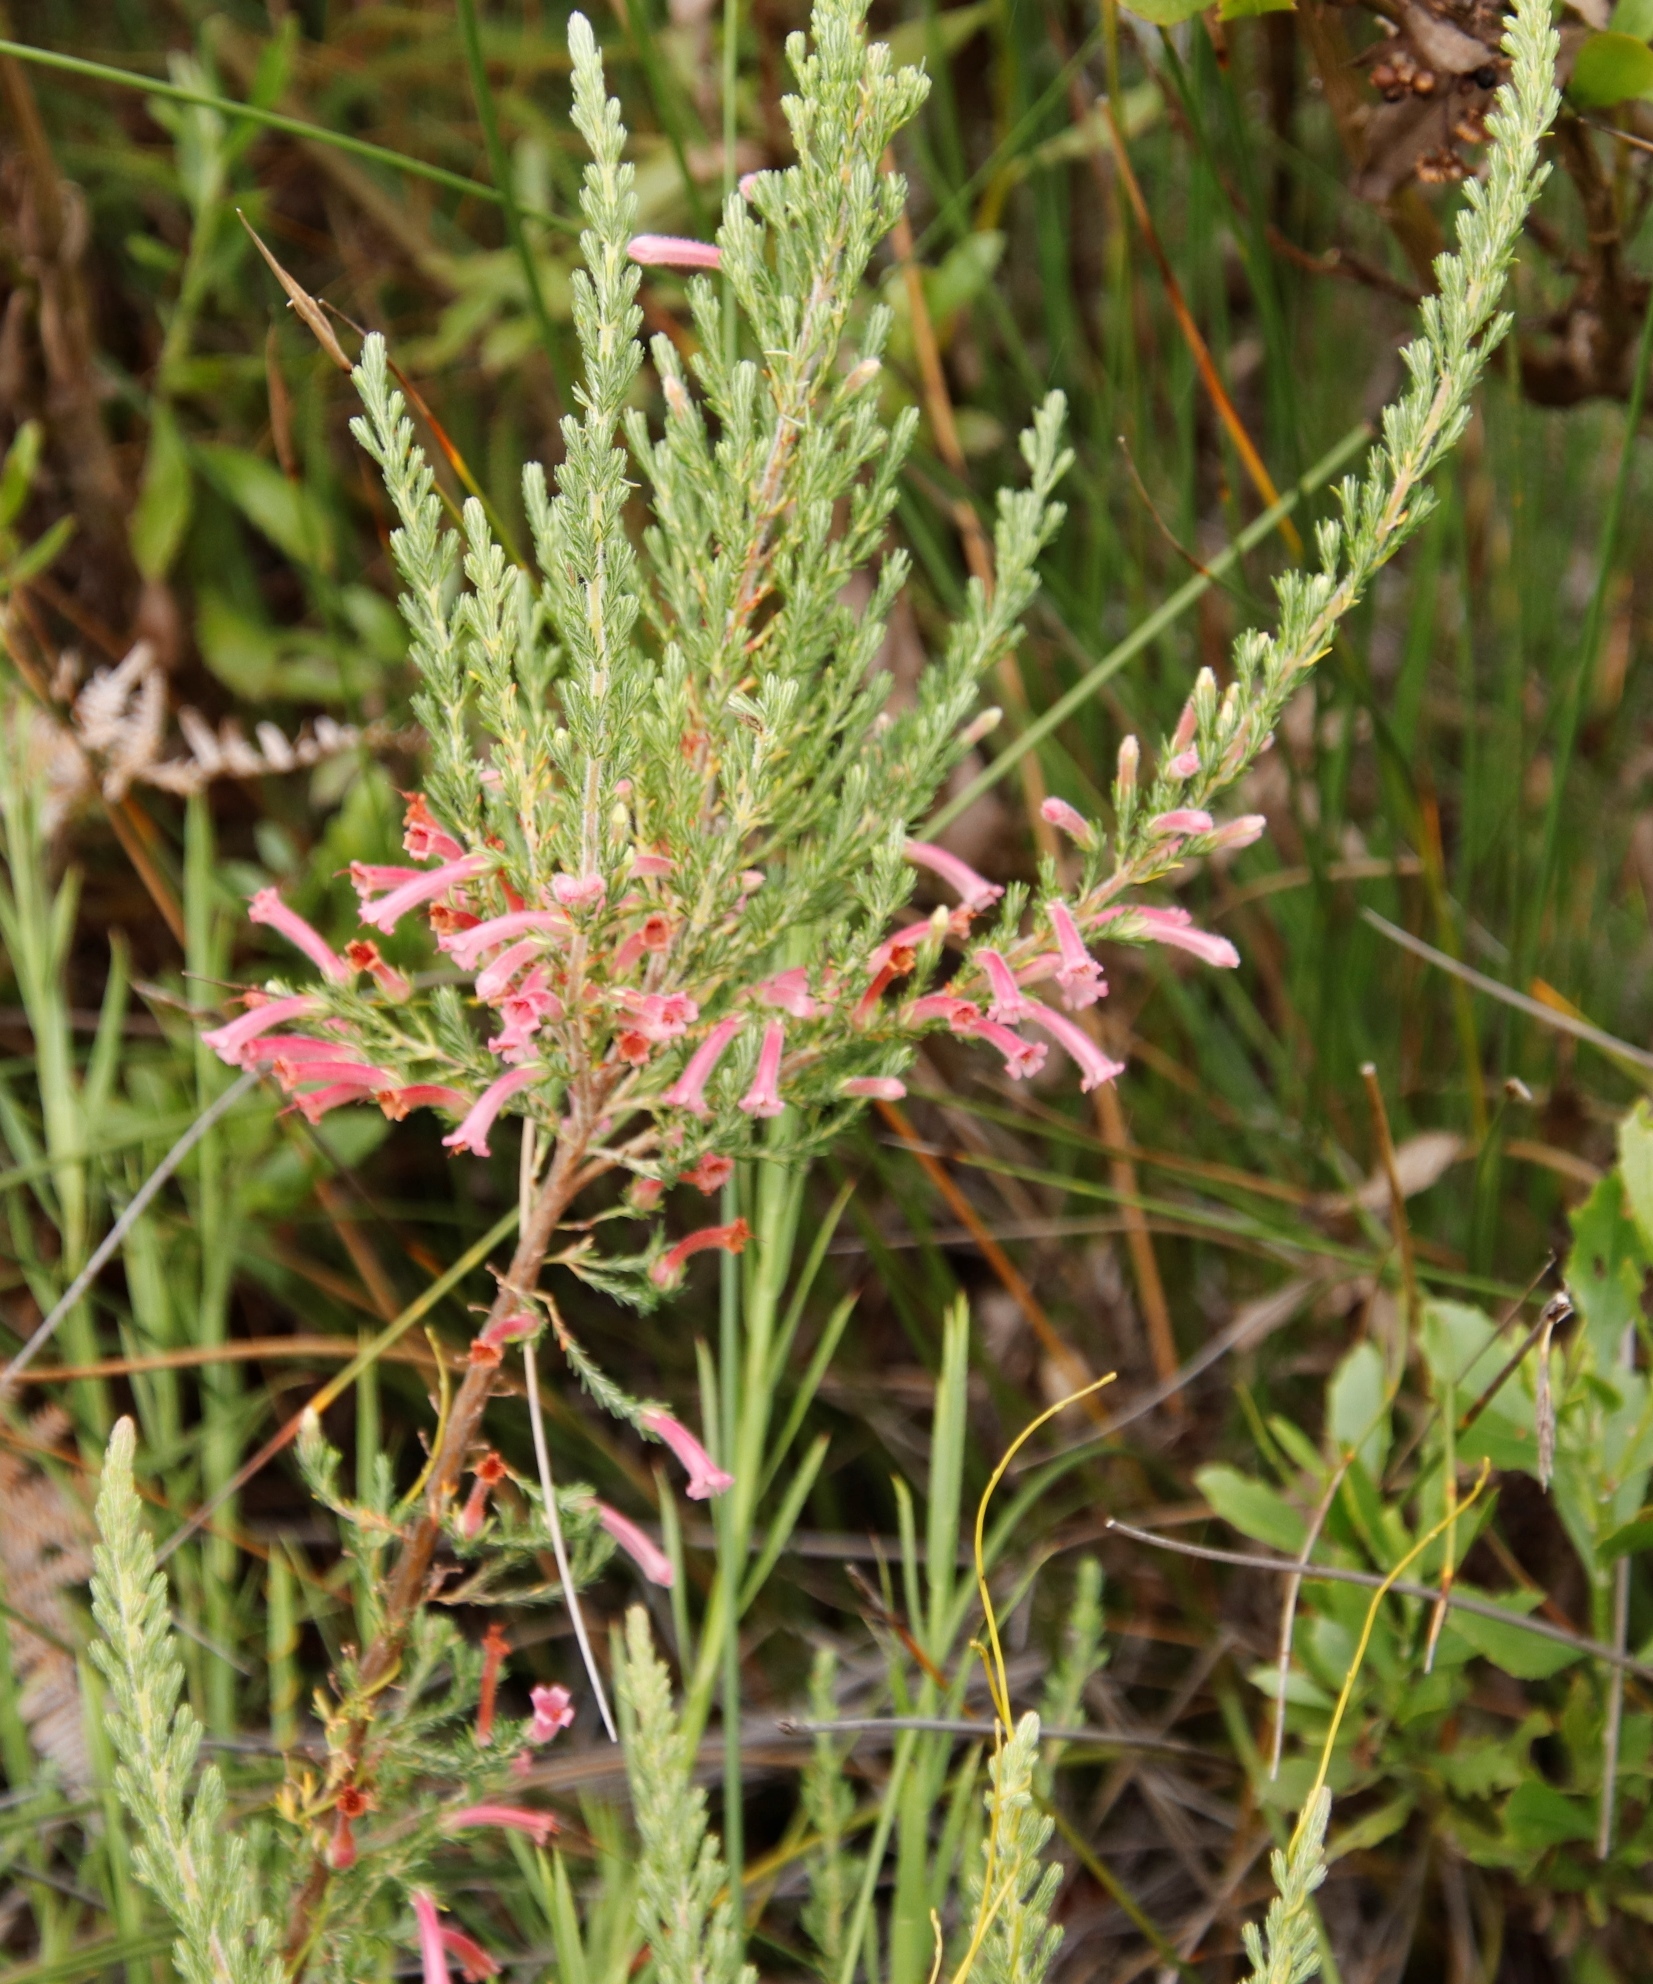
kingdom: Plantae
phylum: Tracheophyta
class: Magnoliopsida
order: Ericales
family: Ericaceae
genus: Erica
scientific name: Erica curviflora
